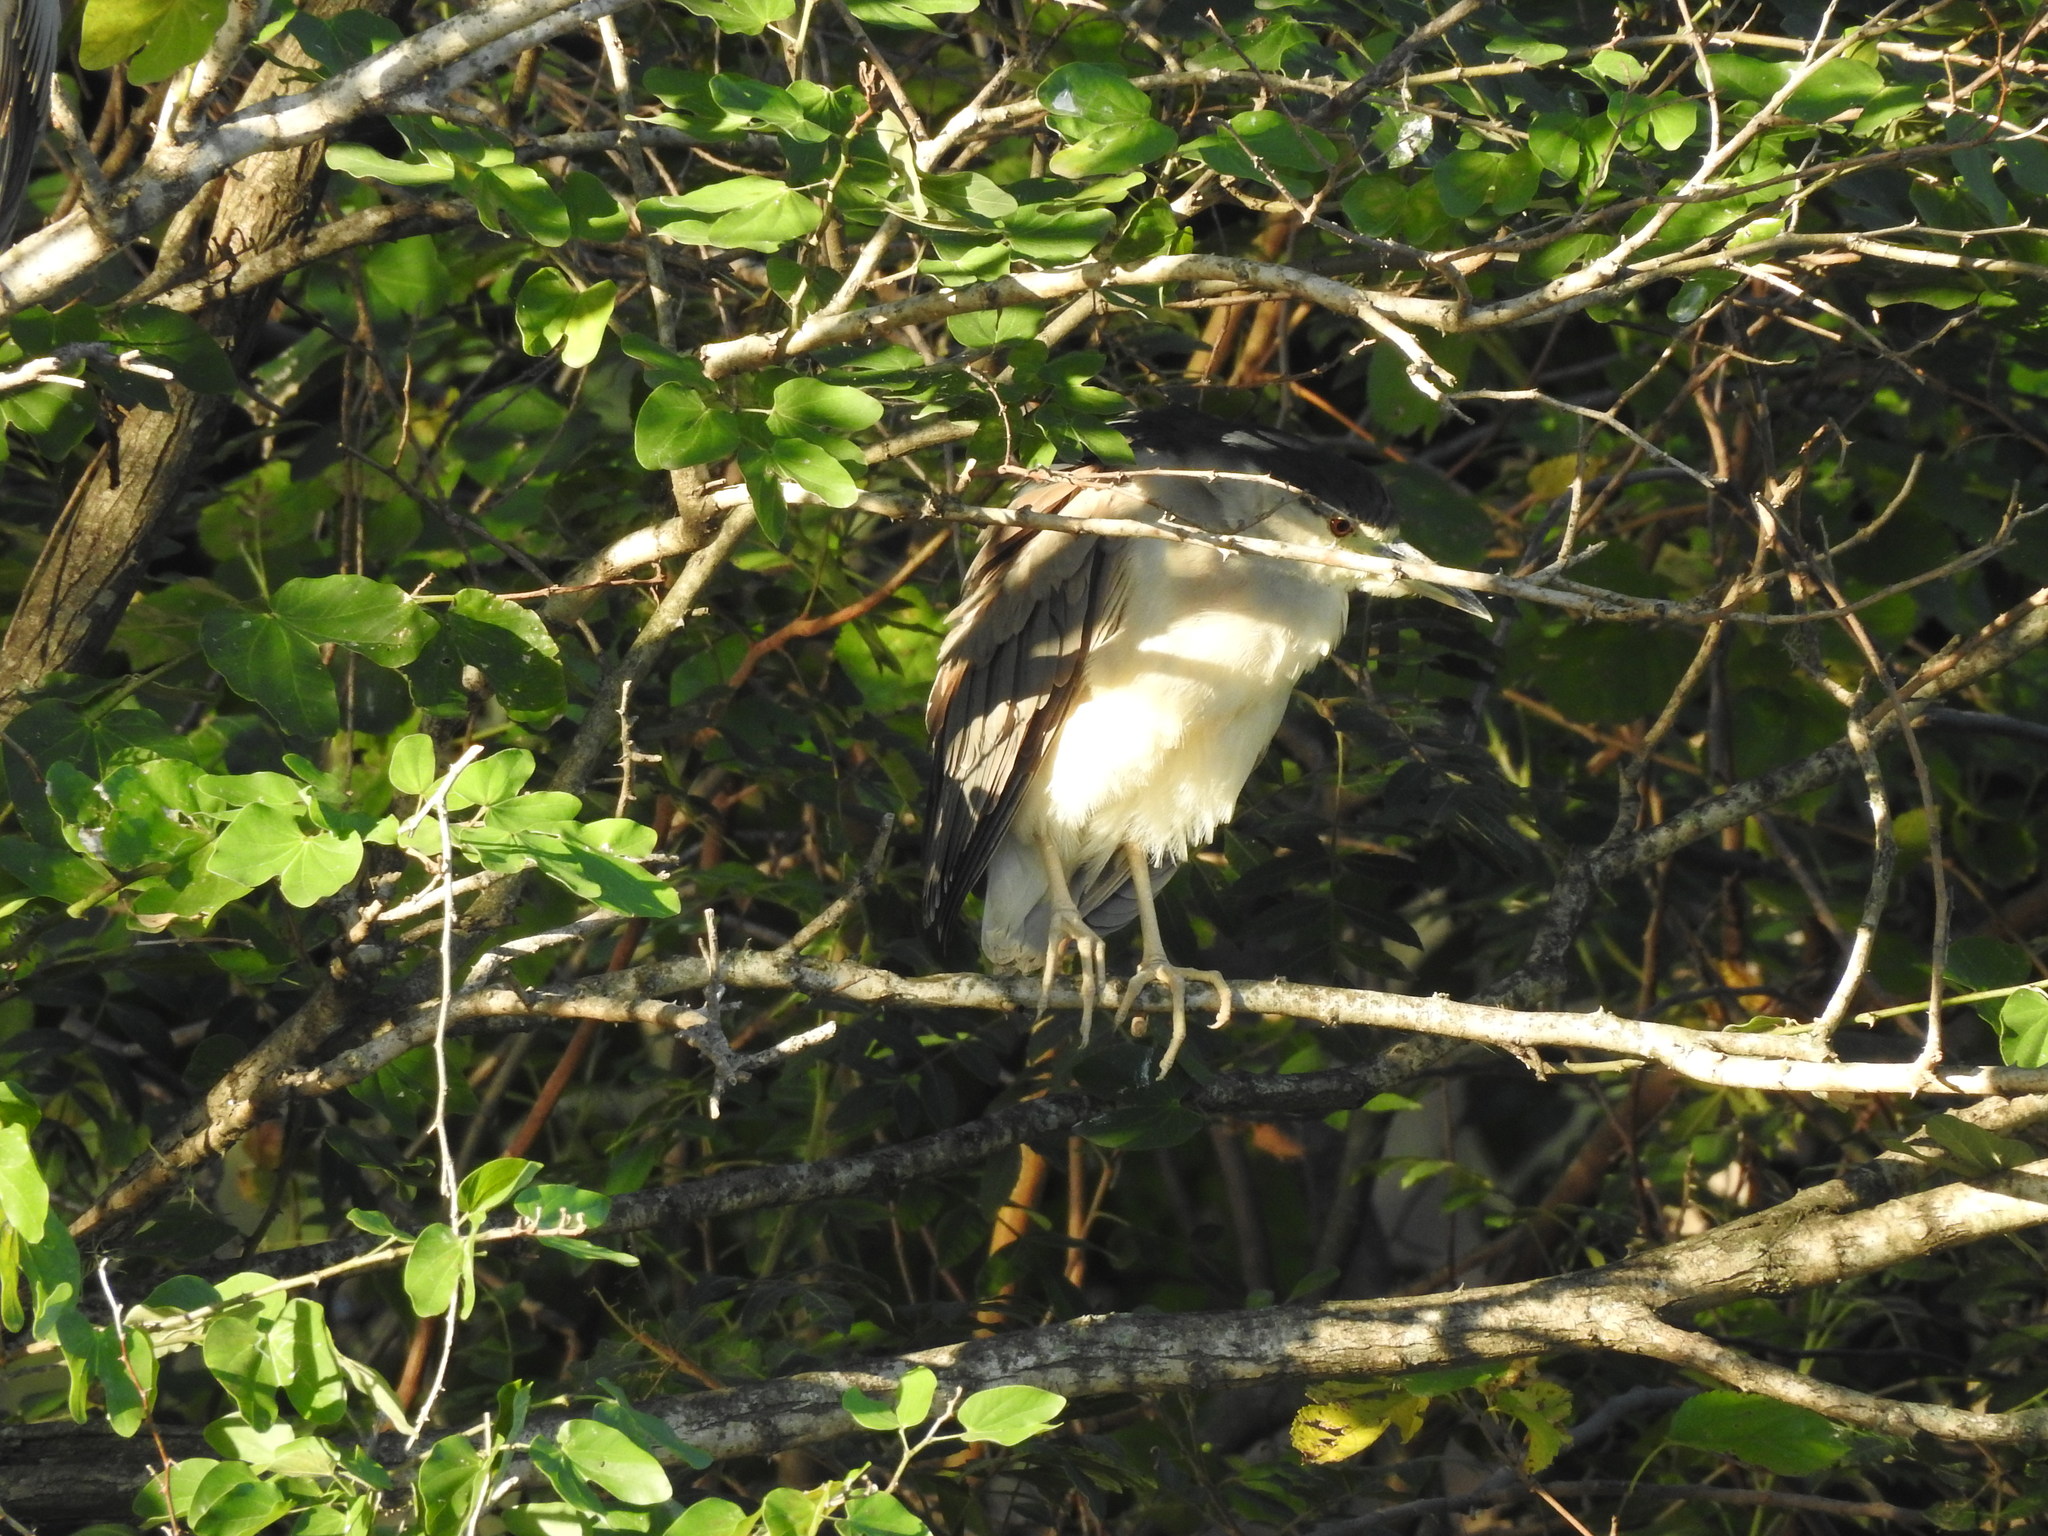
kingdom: Animalia
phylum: Chordata
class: Aves
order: Pelecaniformes
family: Ardeidae
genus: Nycticorax
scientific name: Nycticorax nycticorax
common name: Black-crowned night heron
